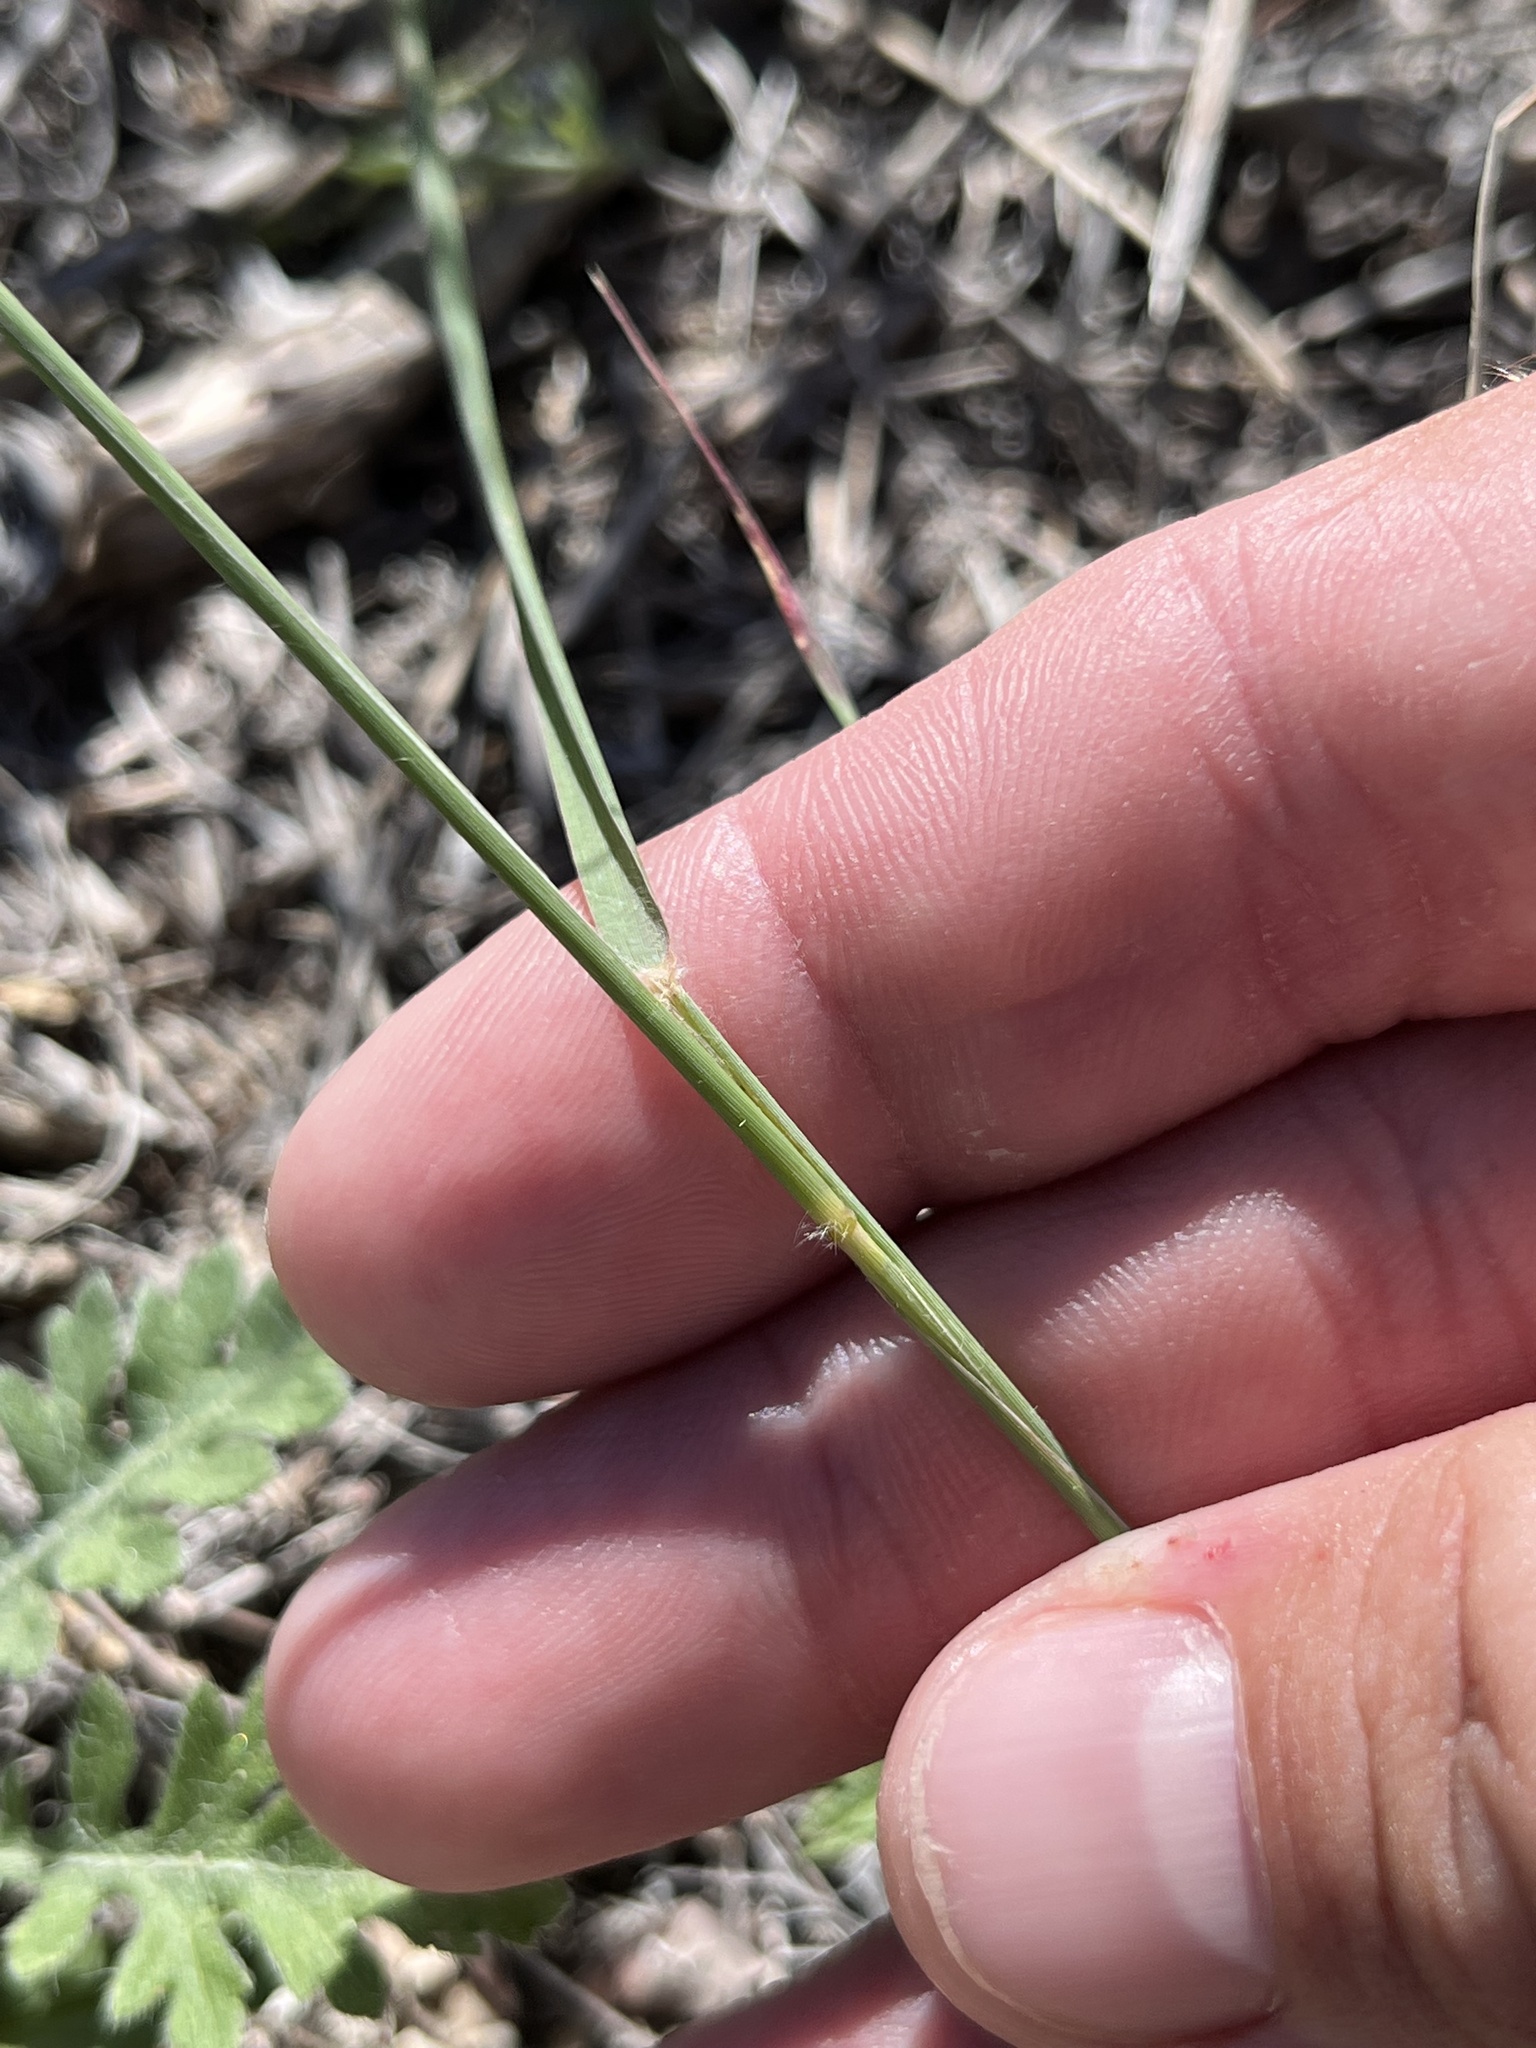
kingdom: Plantae
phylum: Tracheophyta
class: Liliopsida
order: Poales
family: Poaceae
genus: Tridentopsis
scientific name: Tridentopsis mutica
